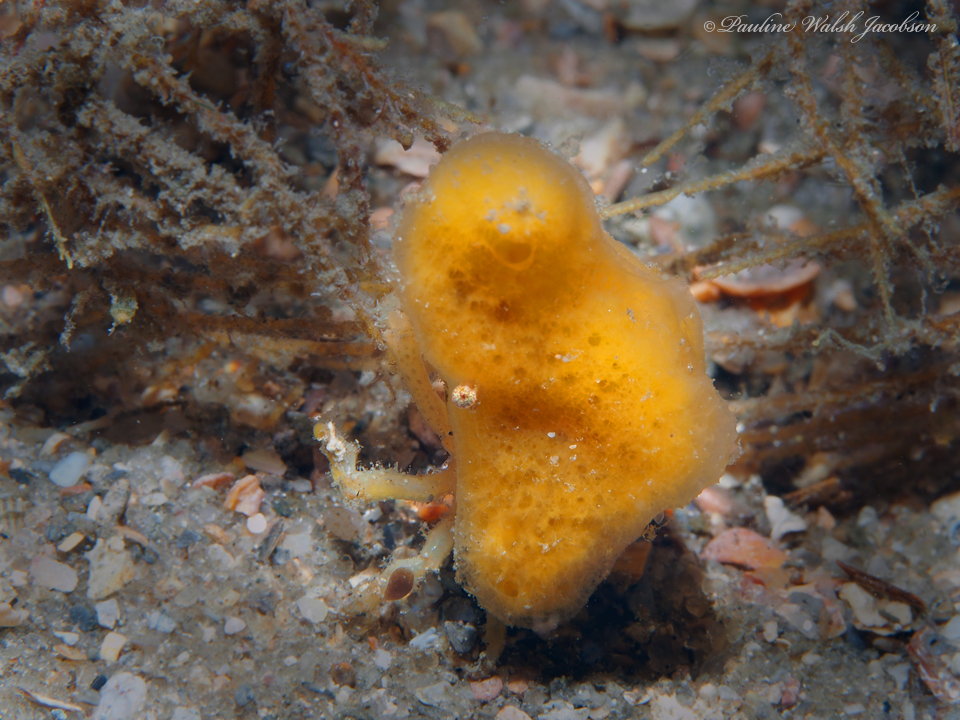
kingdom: Animalia
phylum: Arthropoda
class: Malacostraca
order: Decapoda
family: Epialtidae
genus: Macrocoeloma
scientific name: Macrocoeloma trispinosum
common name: Grass crab
